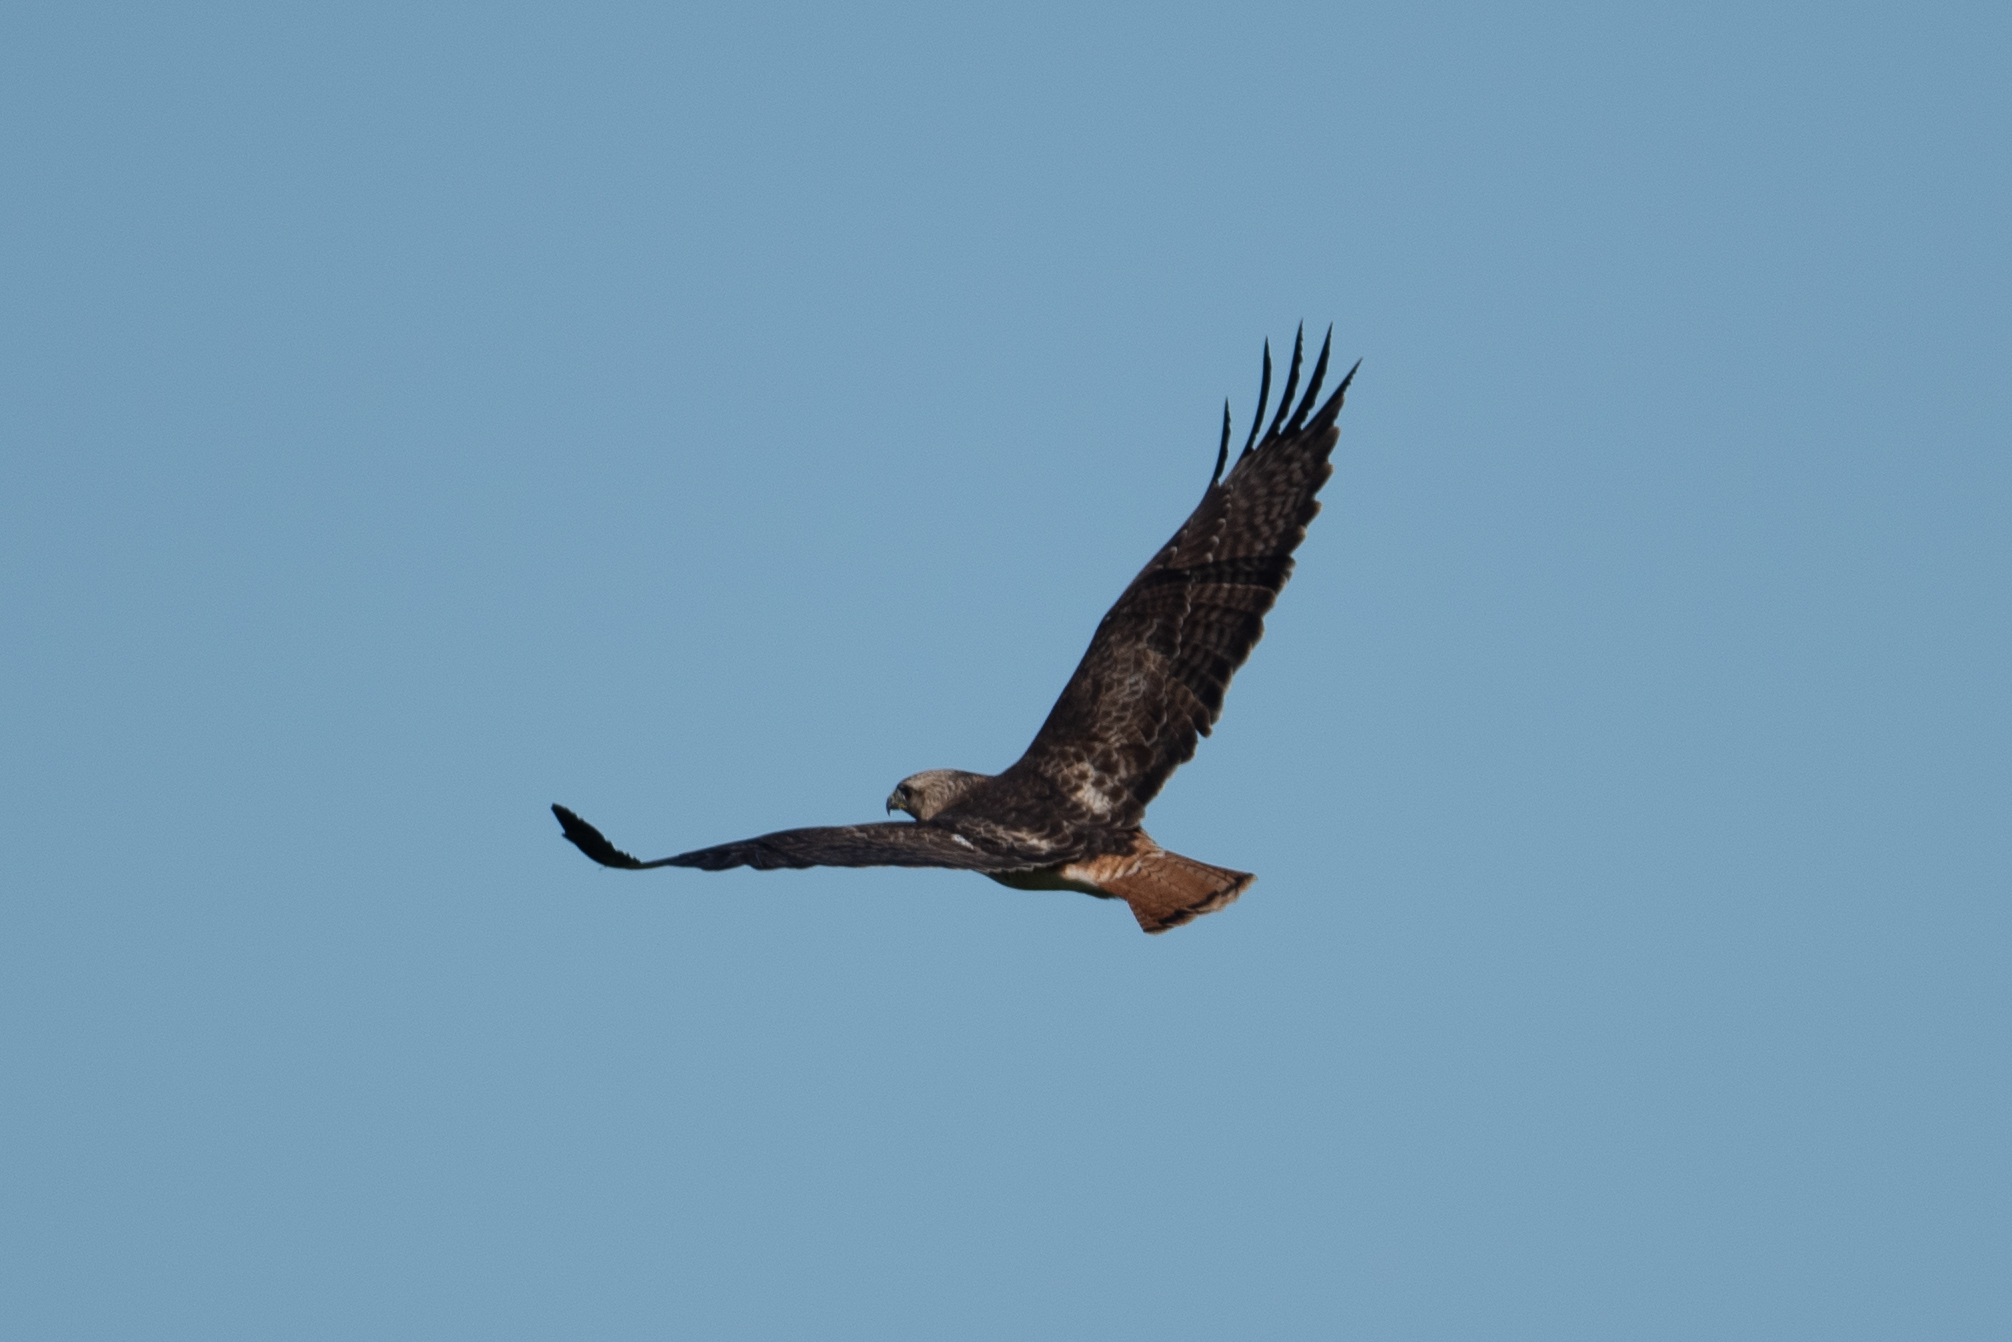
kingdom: Animalia
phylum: Chordata
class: Aves
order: Falconiformes
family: Falconidae
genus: Falco
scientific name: Falco sparverius
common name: American kestrel
